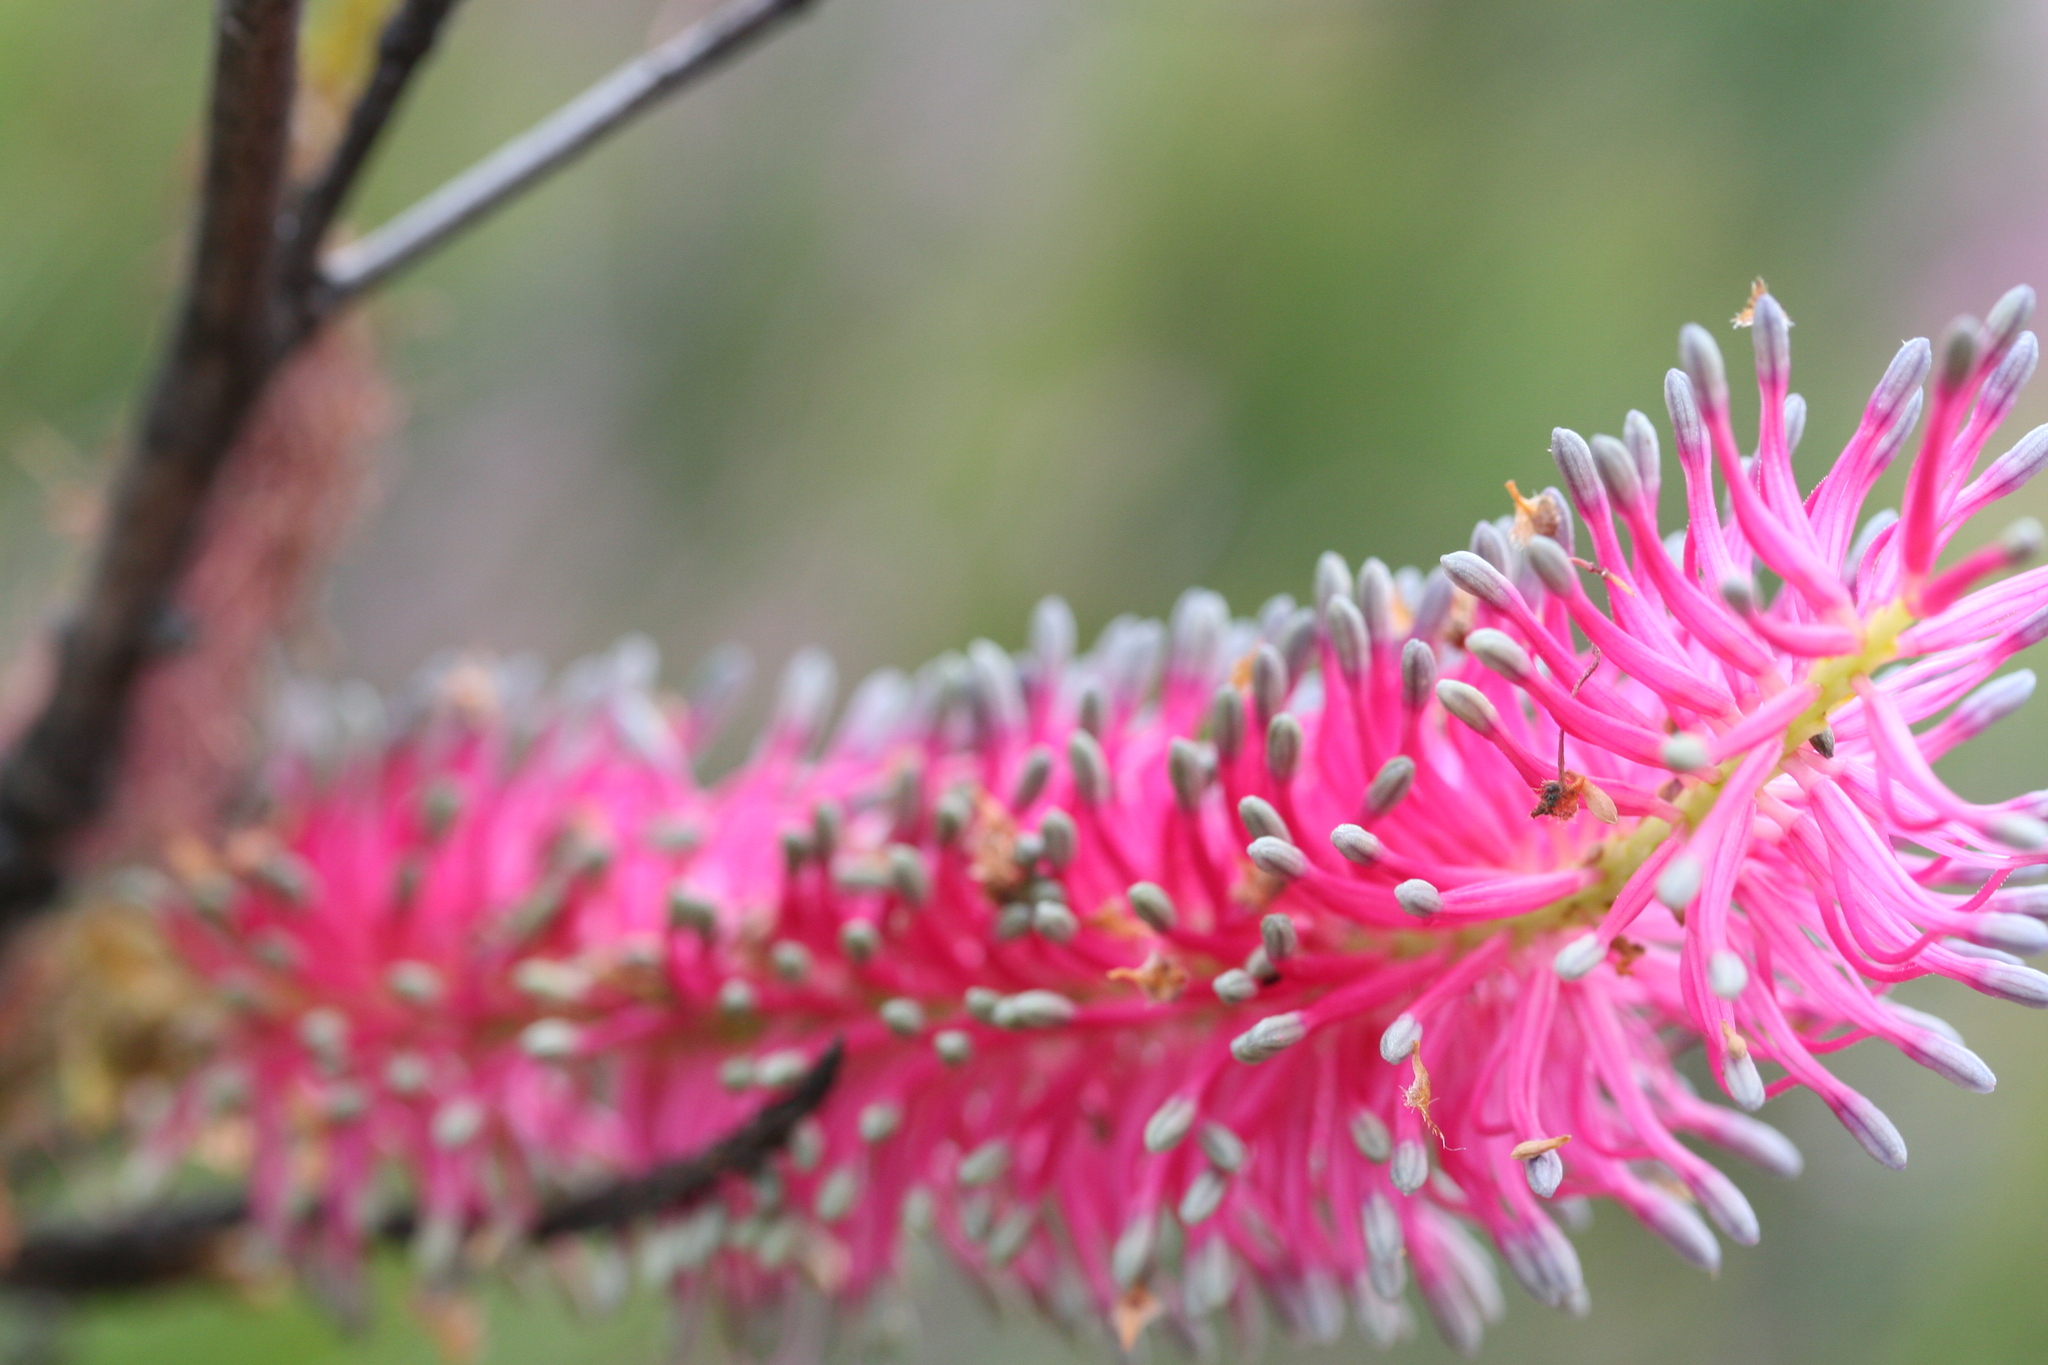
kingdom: Plantae
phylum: Tracheophyta
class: Magnoliopsida
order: Proteales
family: Proteaceae
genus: Grevillea
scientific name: Grevillea petrophiloides
